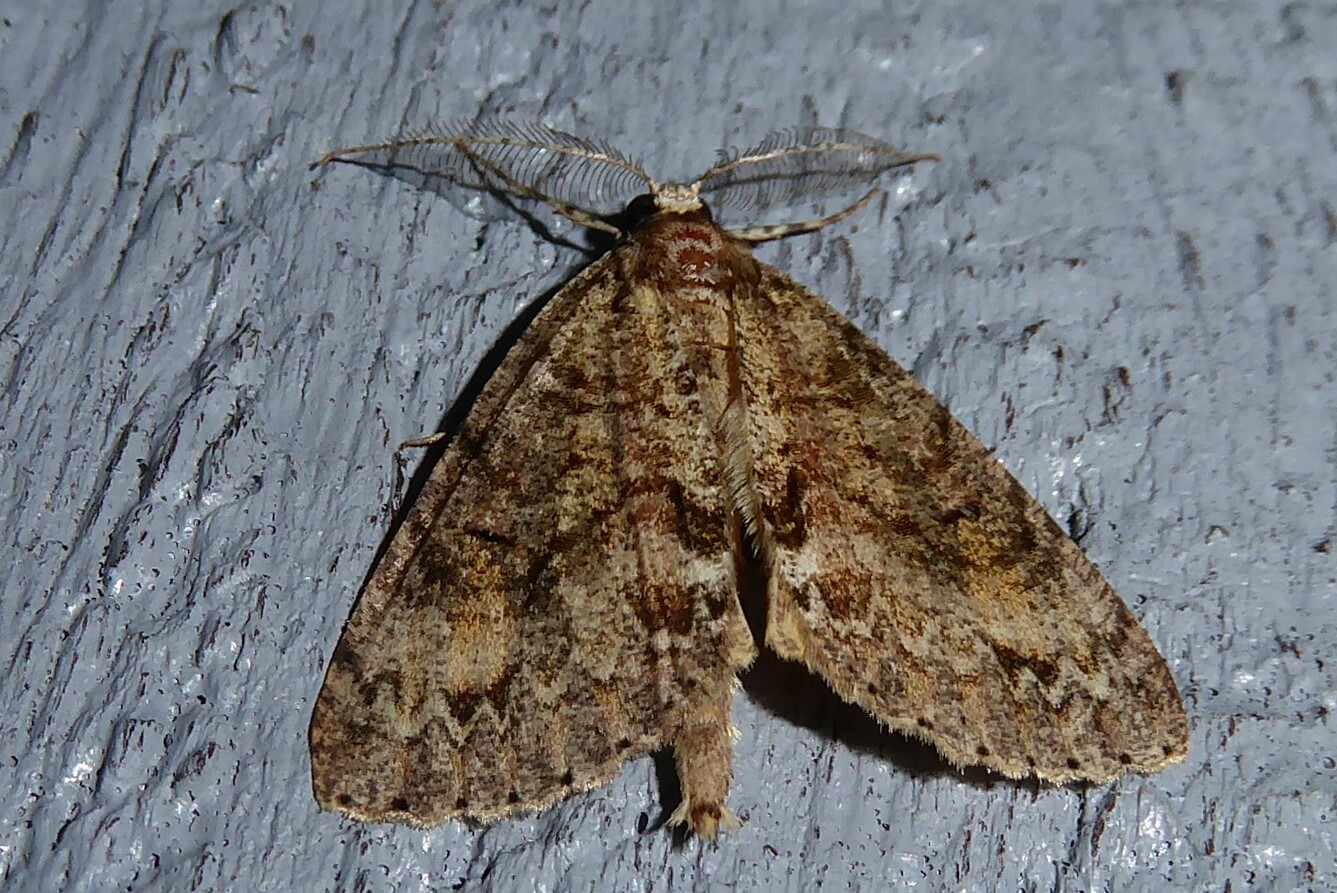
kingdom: Animalia
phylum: Arthropoda
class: Insecta
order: Lepidoptera
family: Geometridae
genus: Pseudocoremia
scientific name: Pseudocoremia suavis
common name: Common forest looper
